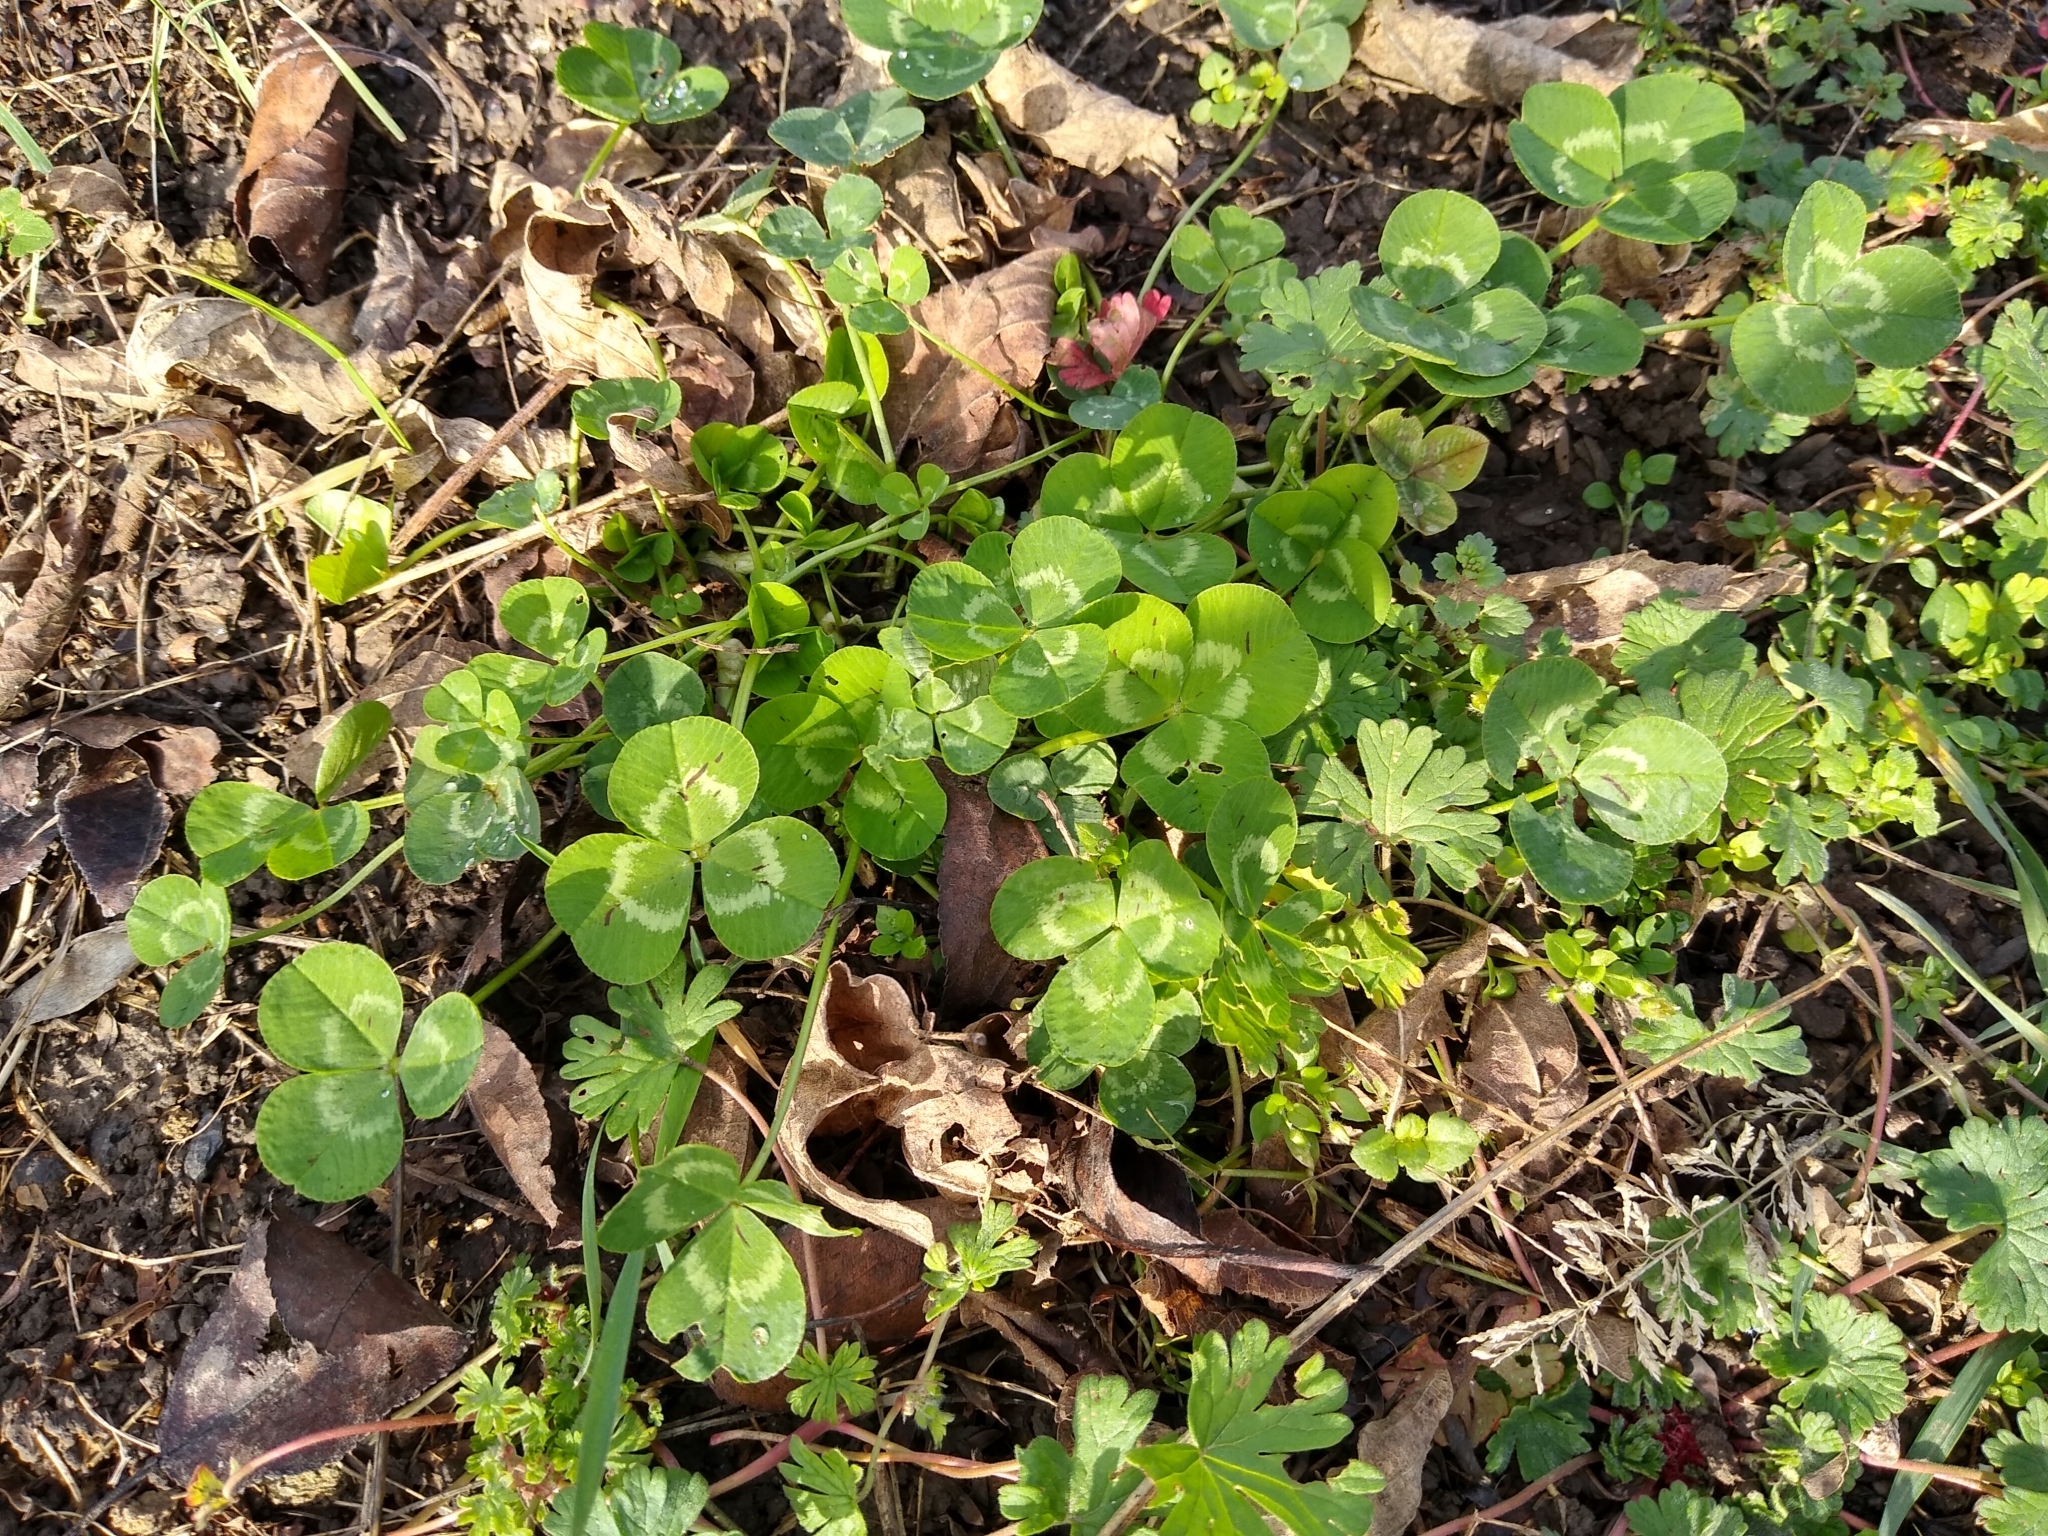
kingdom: Plantae
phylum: Tracheophyta
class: Magnoliopsida
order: Fabales
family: Fabaceae
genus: Trifolium
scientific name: Trifolium repens
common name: White clover
